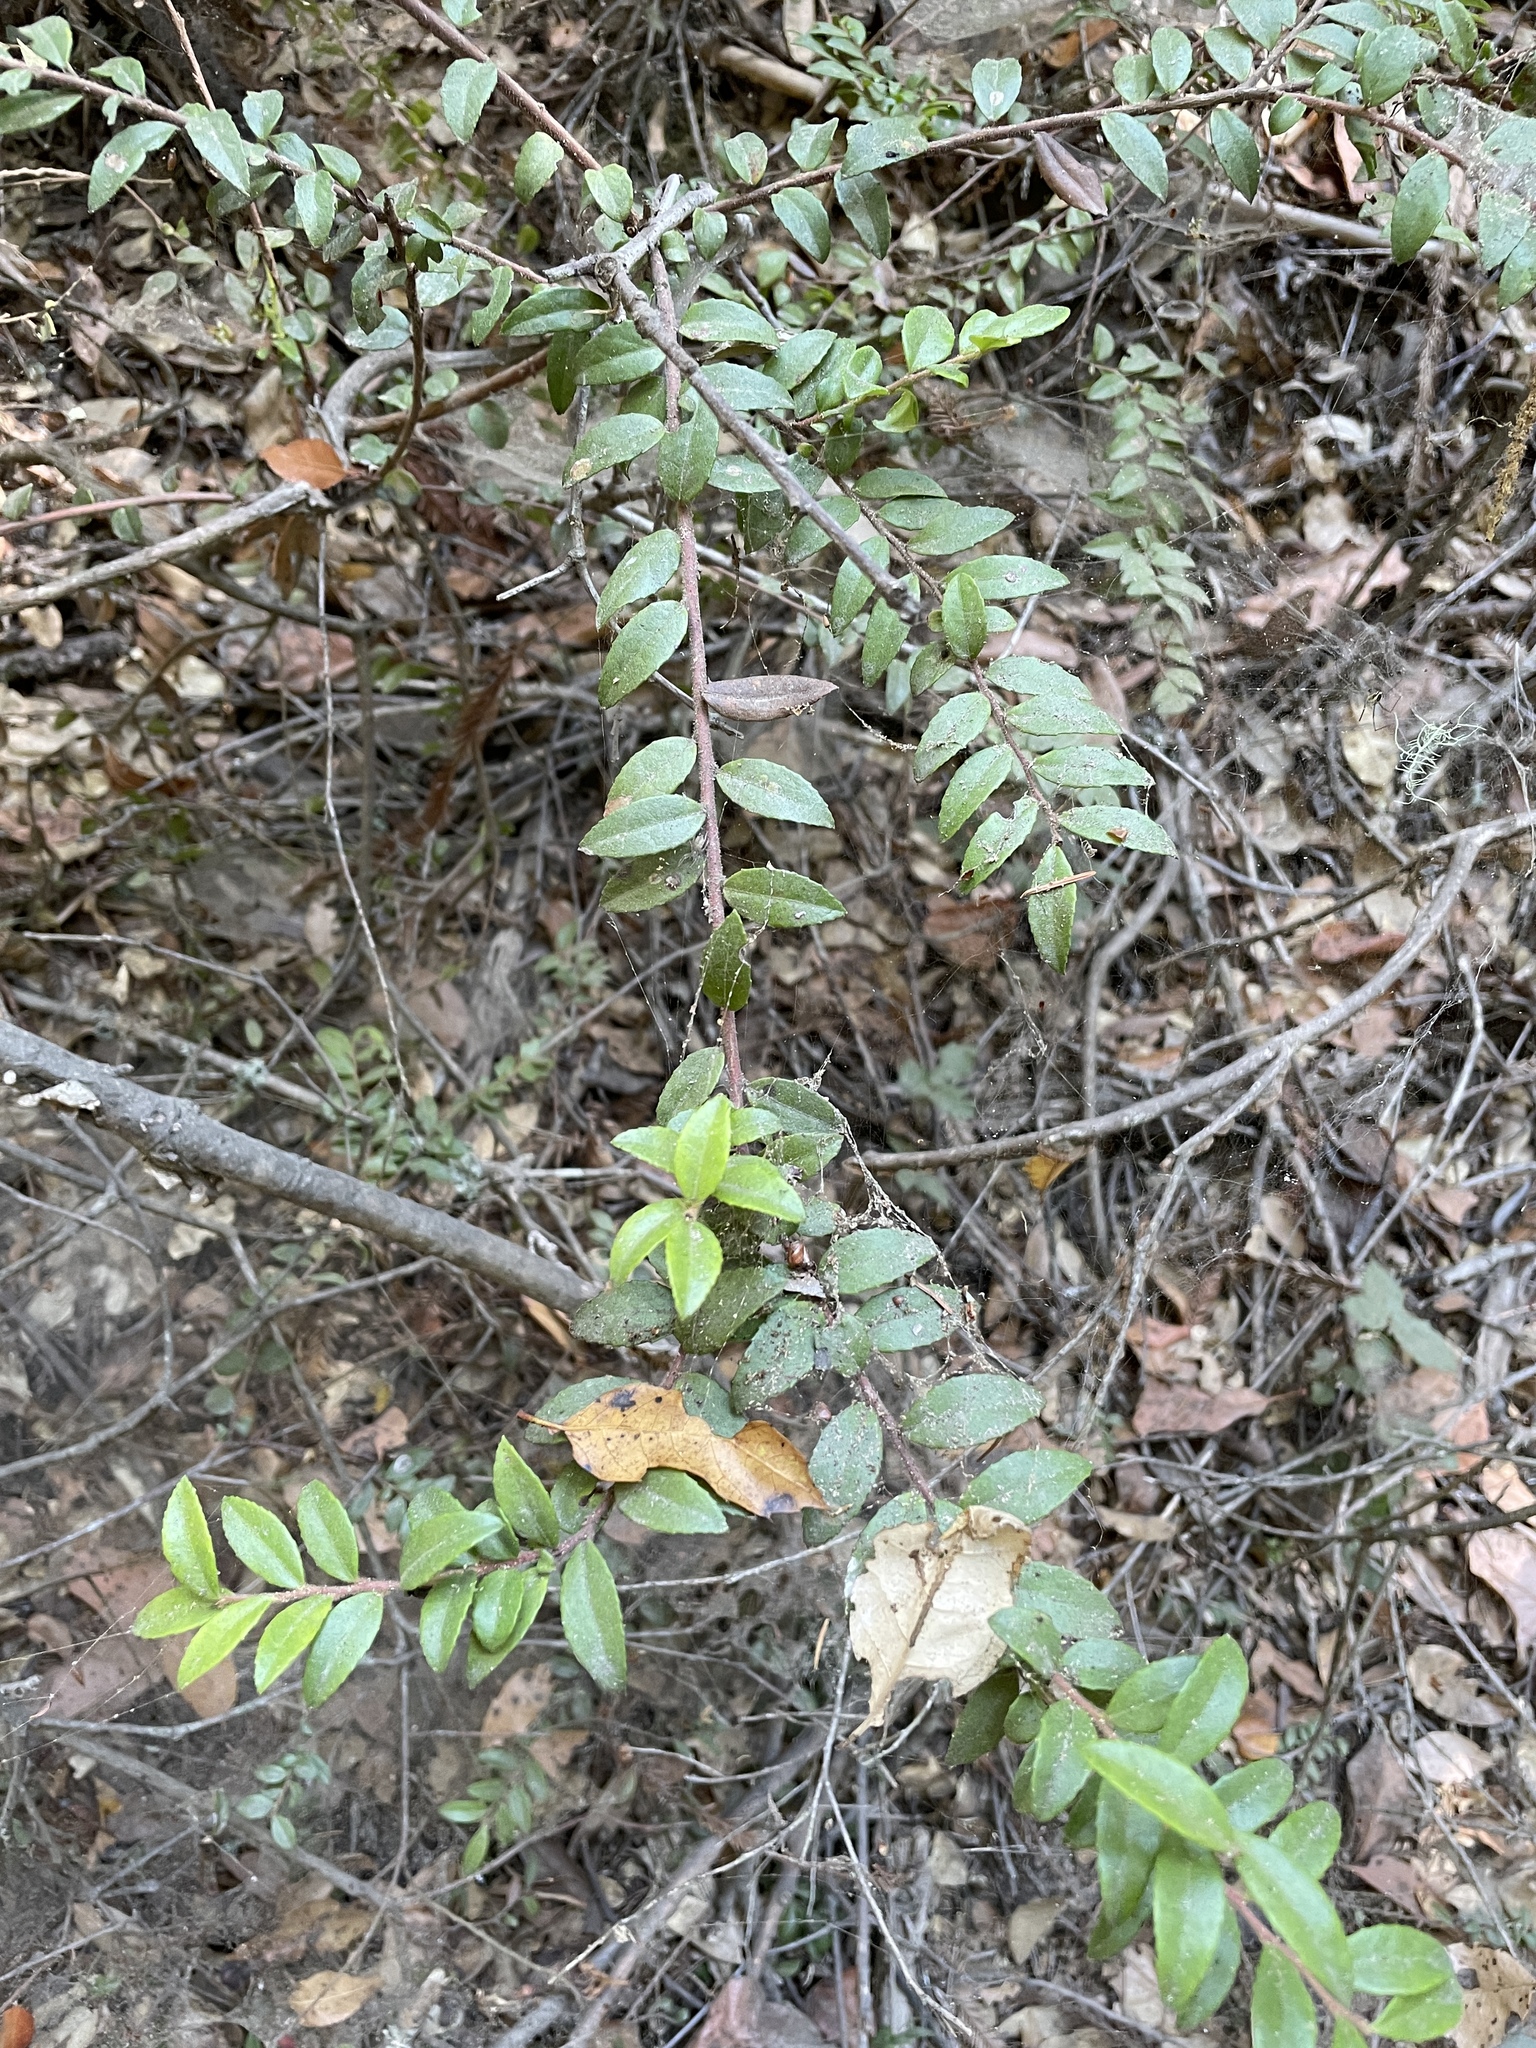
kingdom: Plantae
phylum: Tracheophyta
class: Magnoliopsida
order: Ericales
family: Ericaceae
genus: Vaccinium
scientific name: Vaccinium ovatum
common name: California-huckleberry
